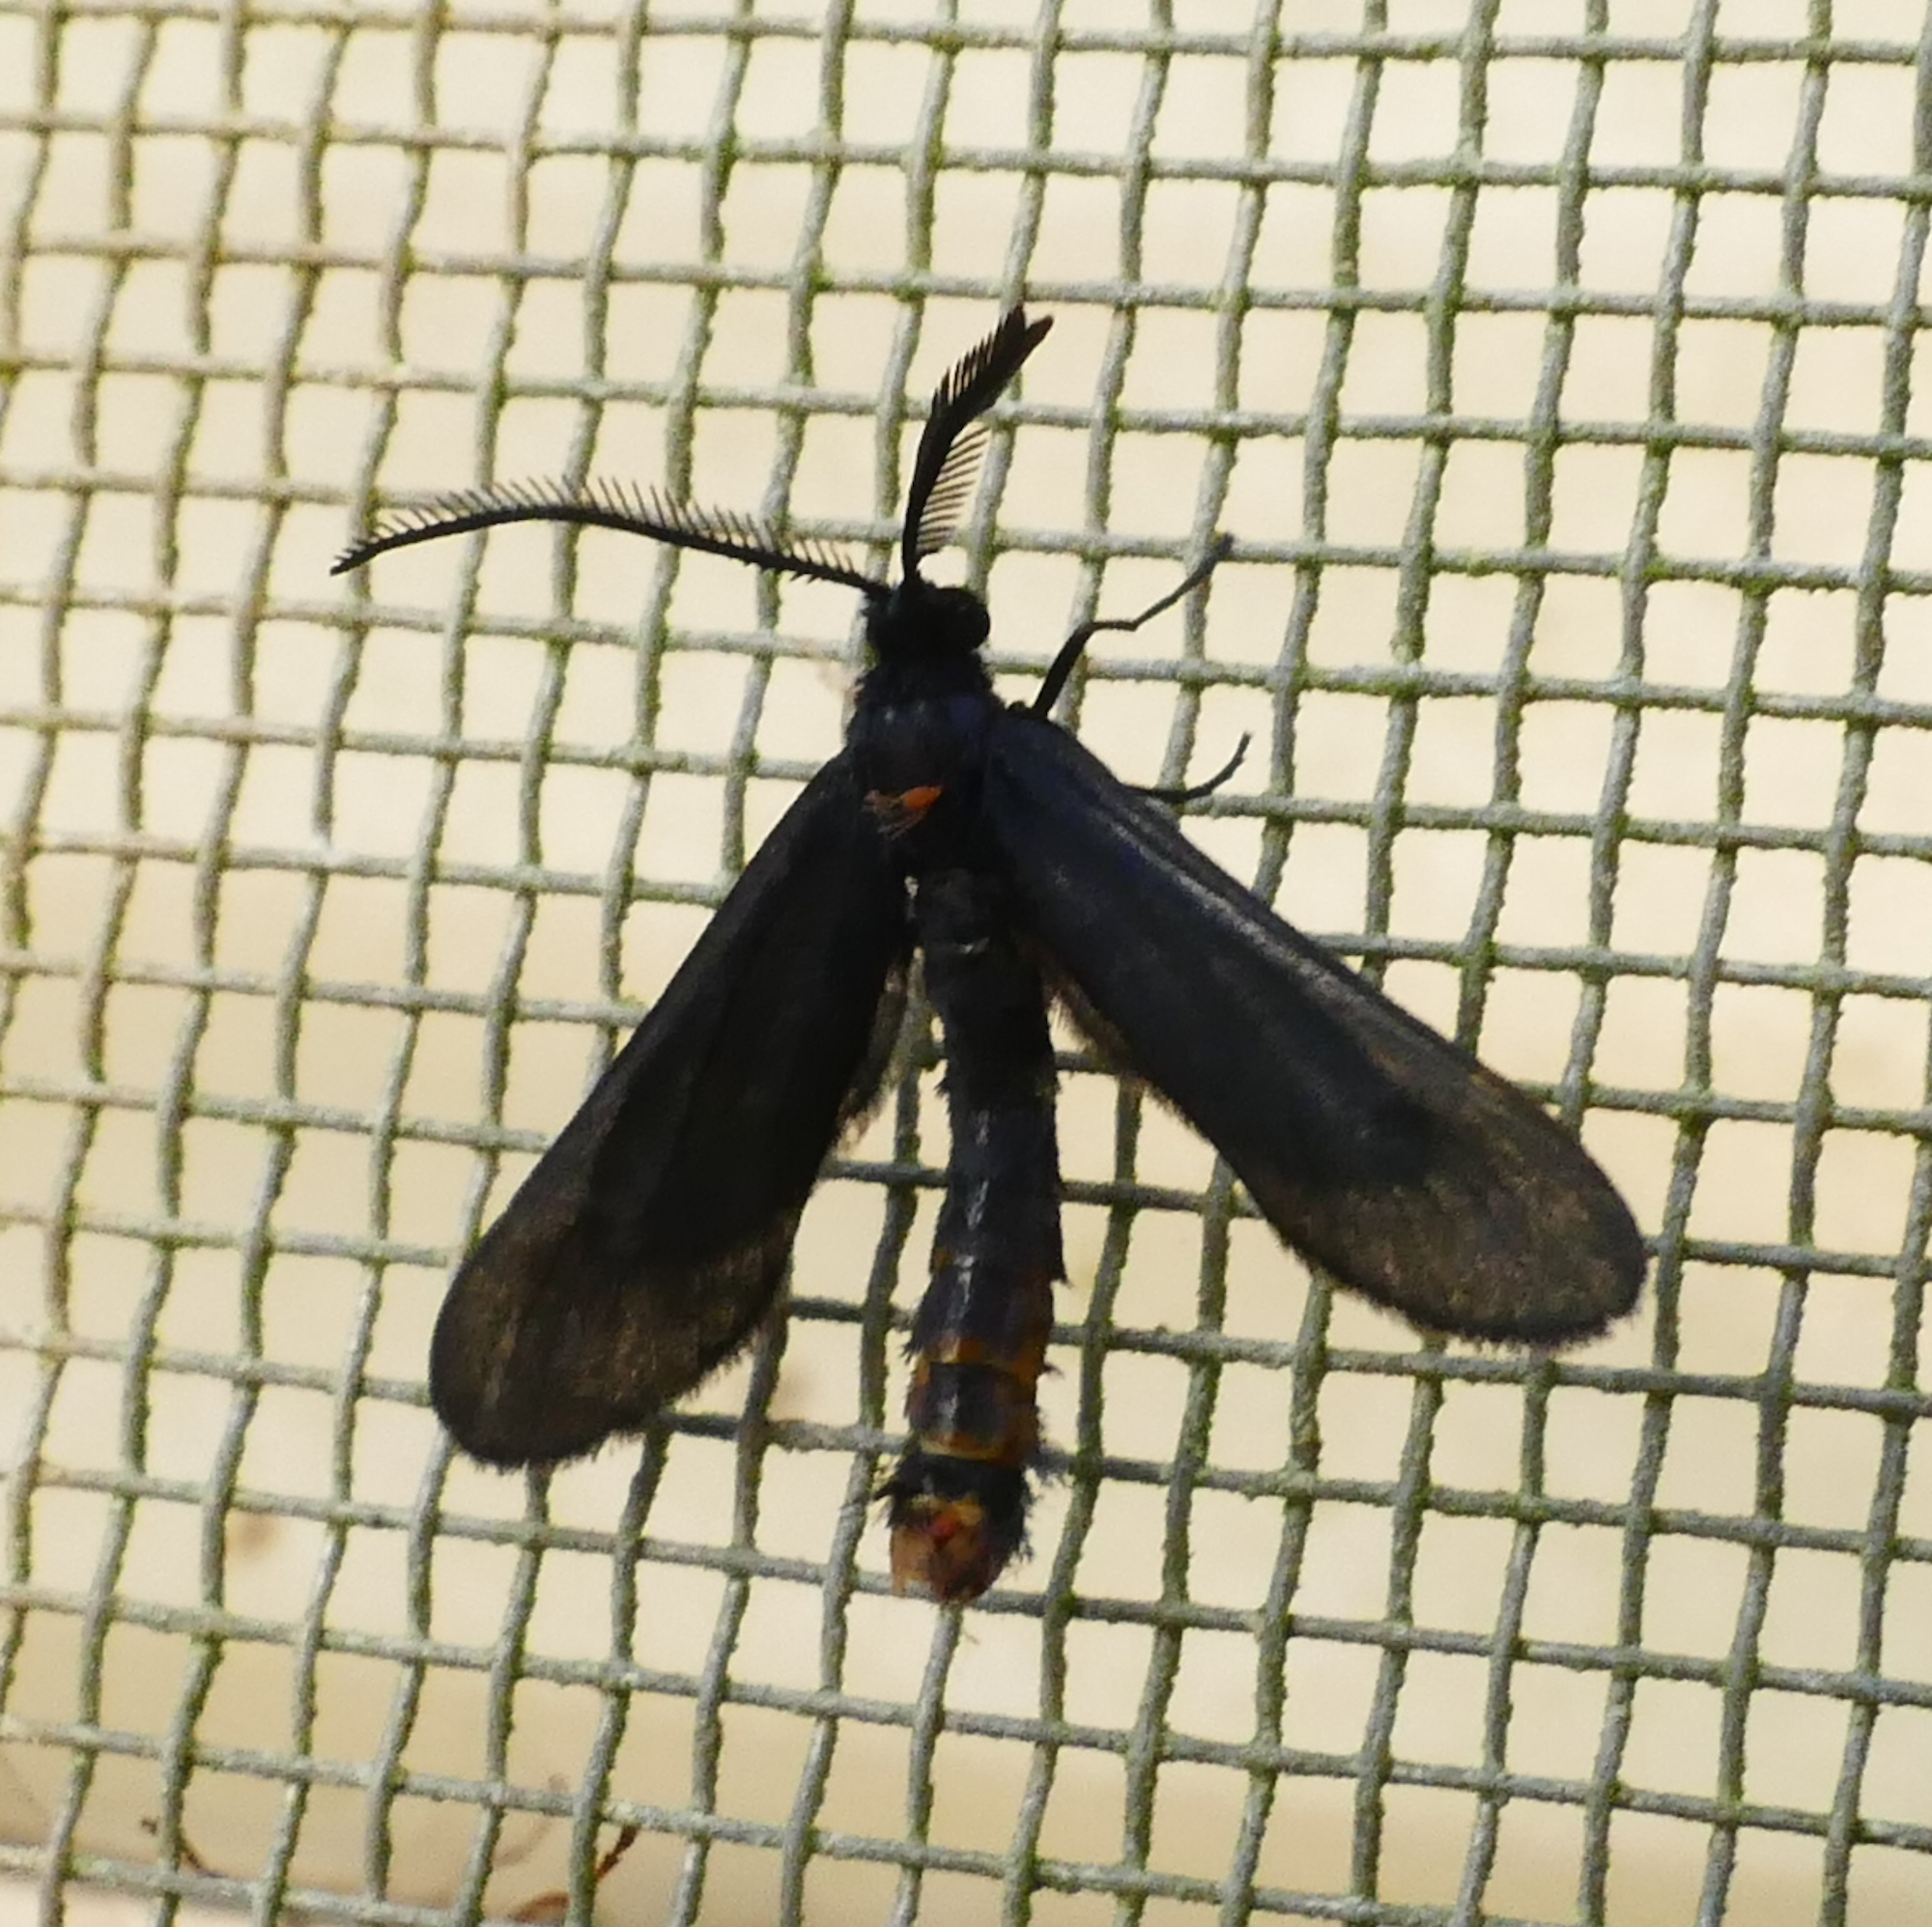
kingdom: Animalia
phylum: Arthropoda
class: Insecta
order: Lepidoptera
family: Zygaenidae
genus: Harrisina
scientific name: Harrisina coracina
